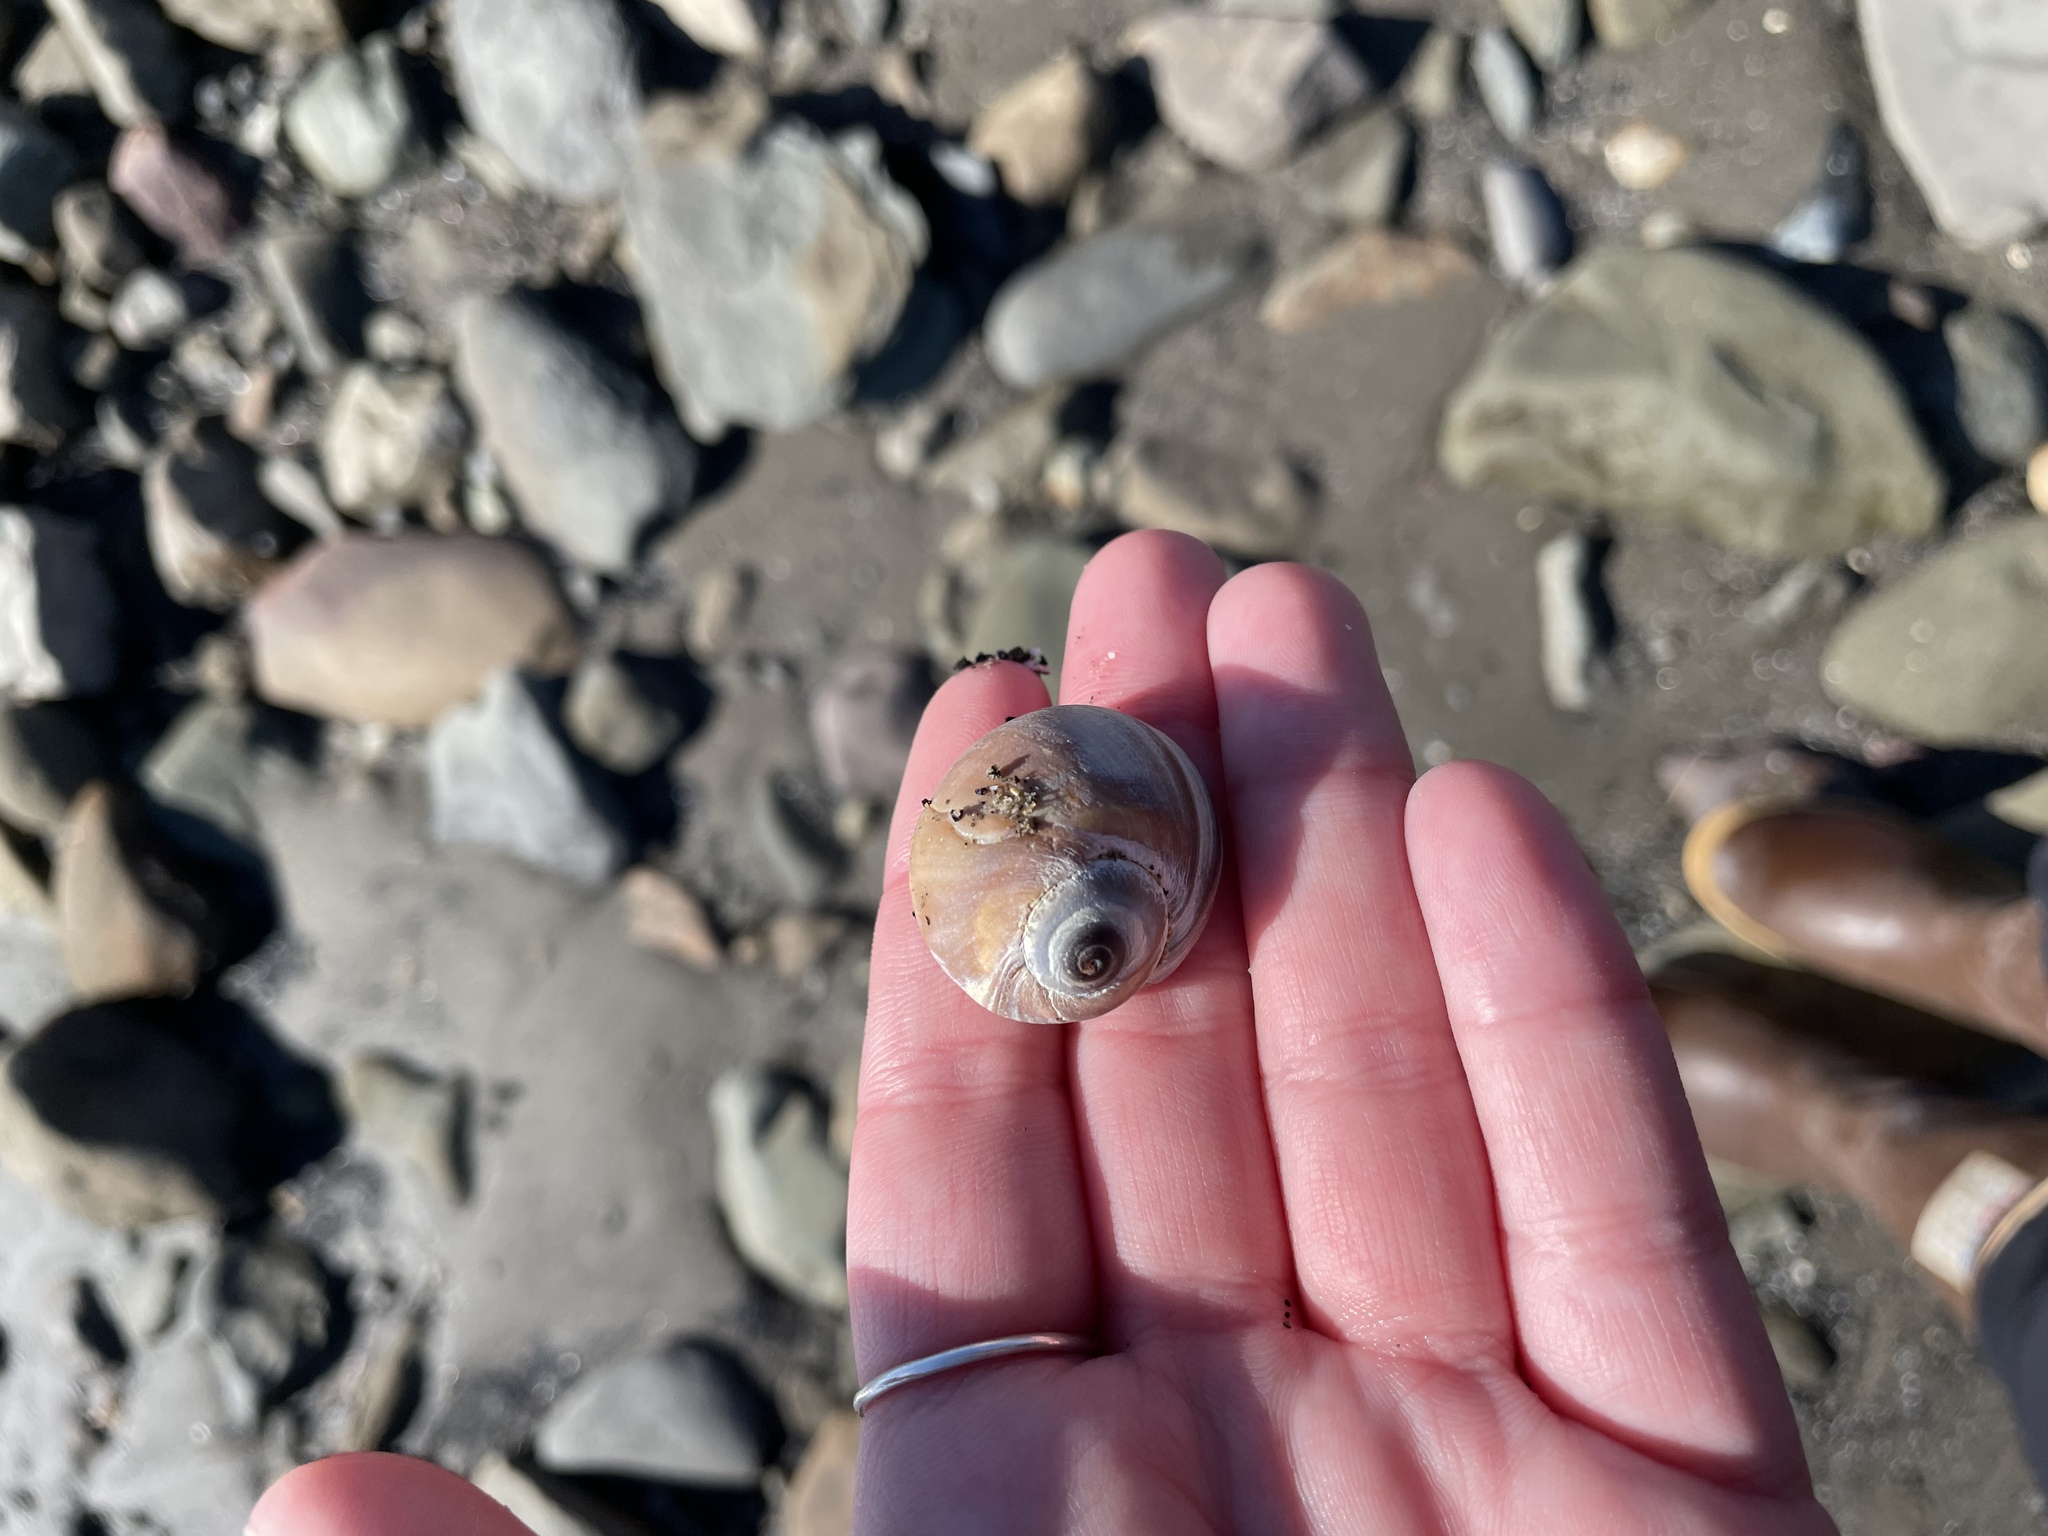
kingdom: Animalia
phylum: Mollusca
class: Gastropoda
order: Littorinimorpha
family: Naticidae
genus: Euspira
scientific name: Euspira heros
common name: Common northern moonsnail
